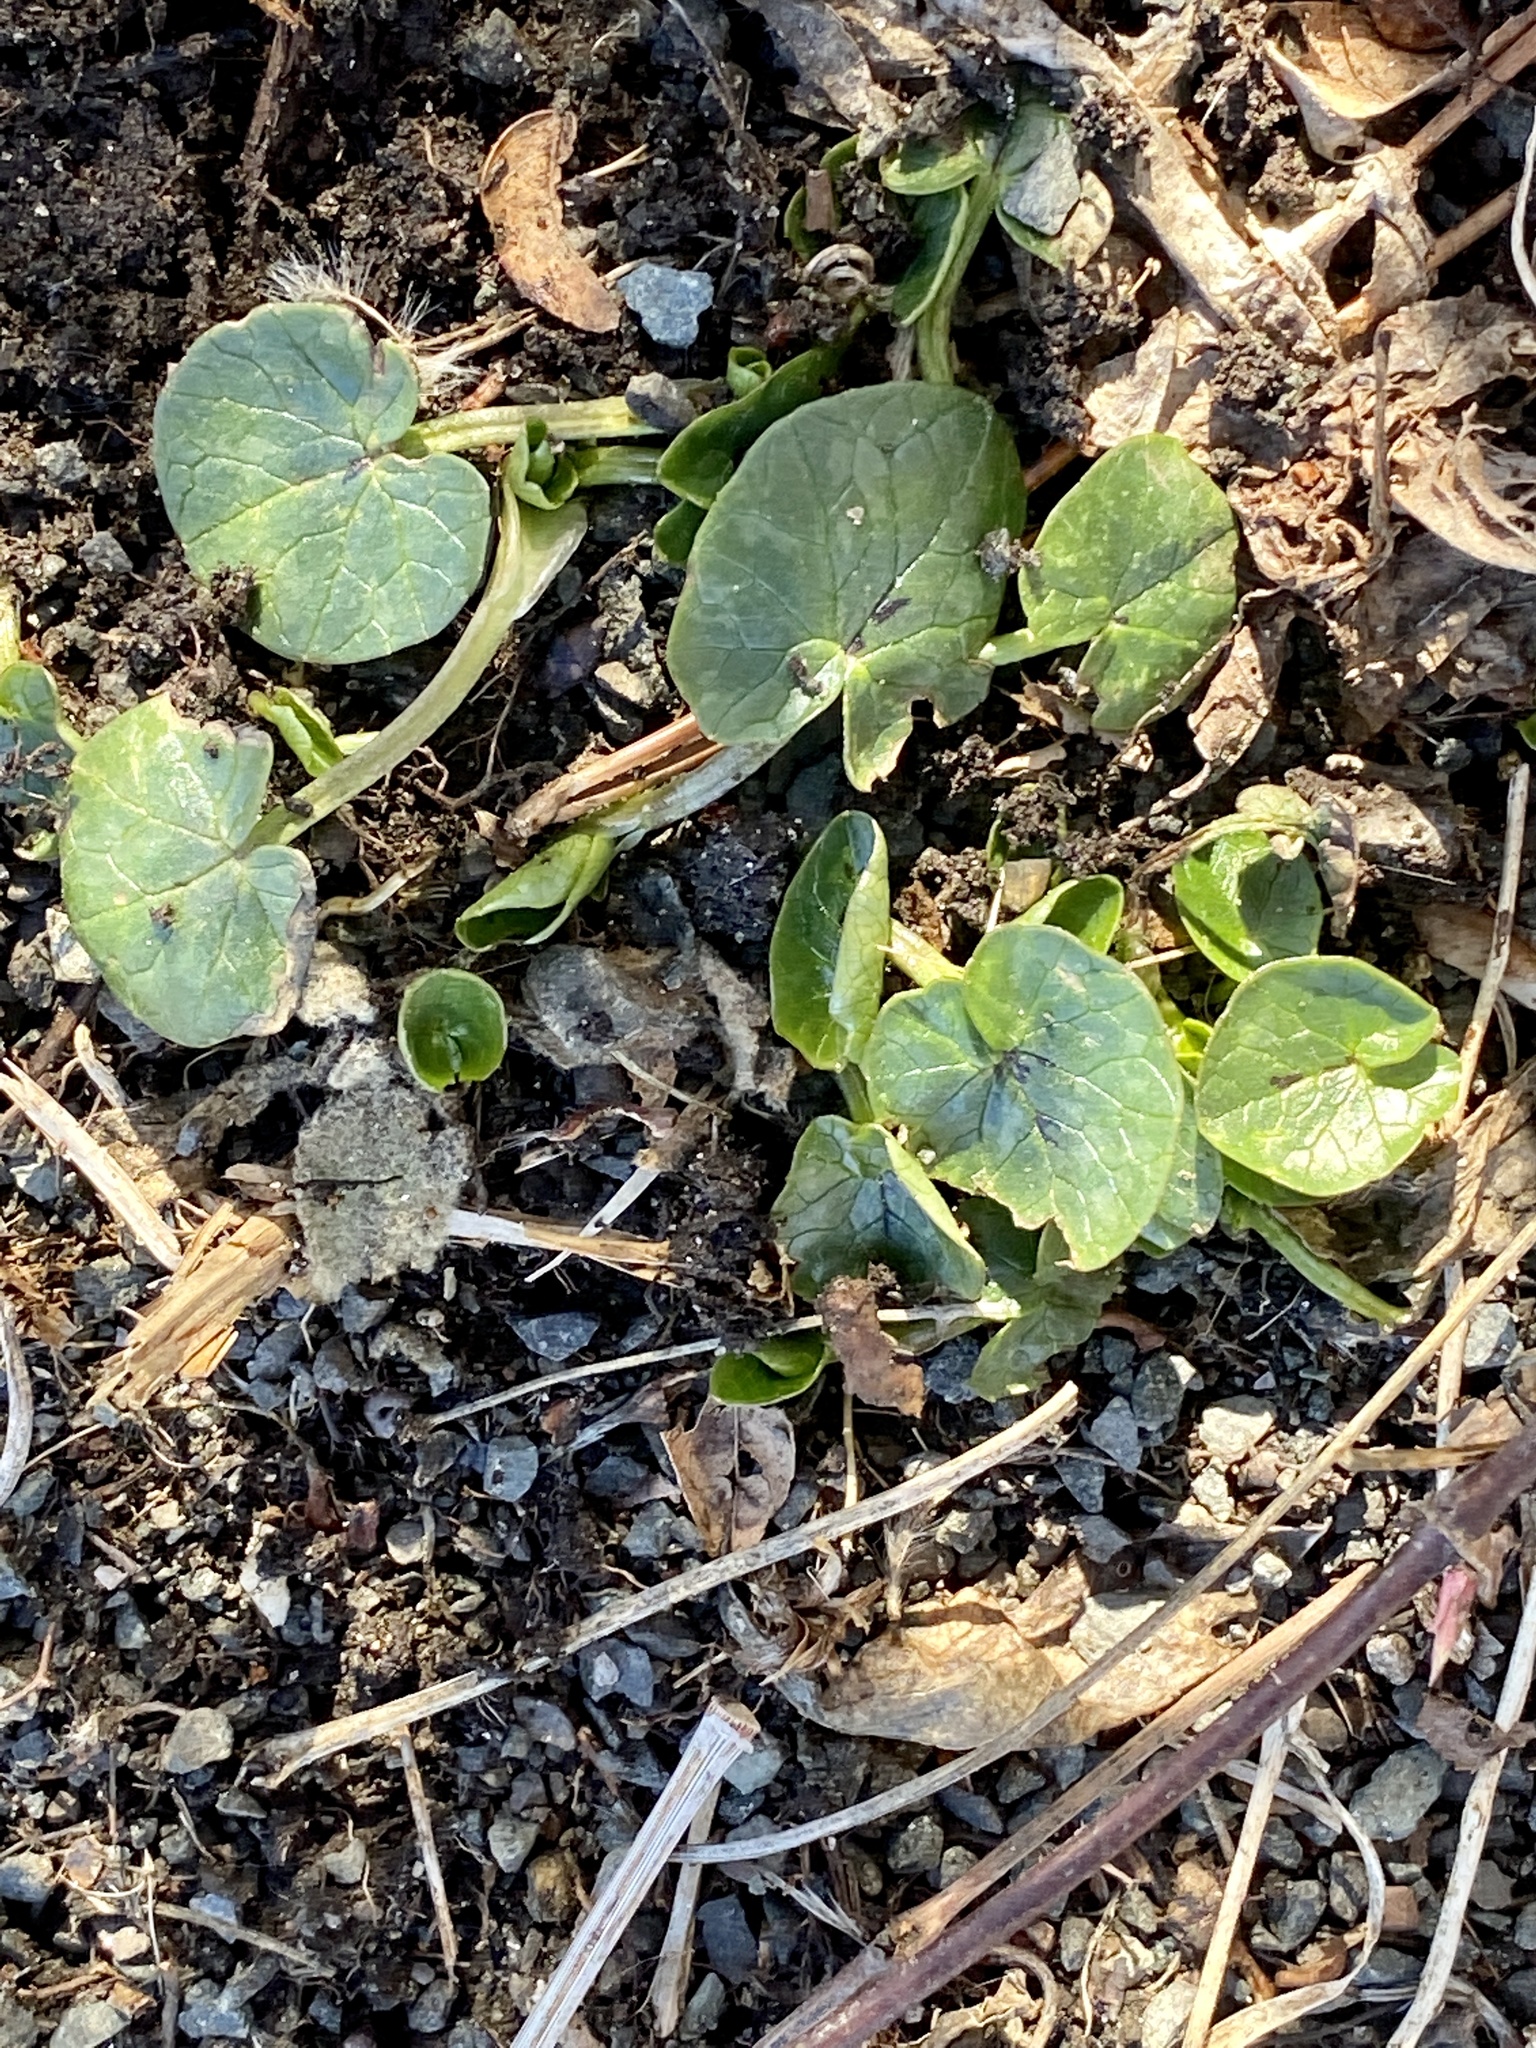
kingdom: Plantae
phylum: Tracheophyta
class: Magnoliopsida
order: Ranunculales
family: Ranunculaceae
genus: Ficaria
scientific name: Ficaria verna
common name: Lesser celandine
